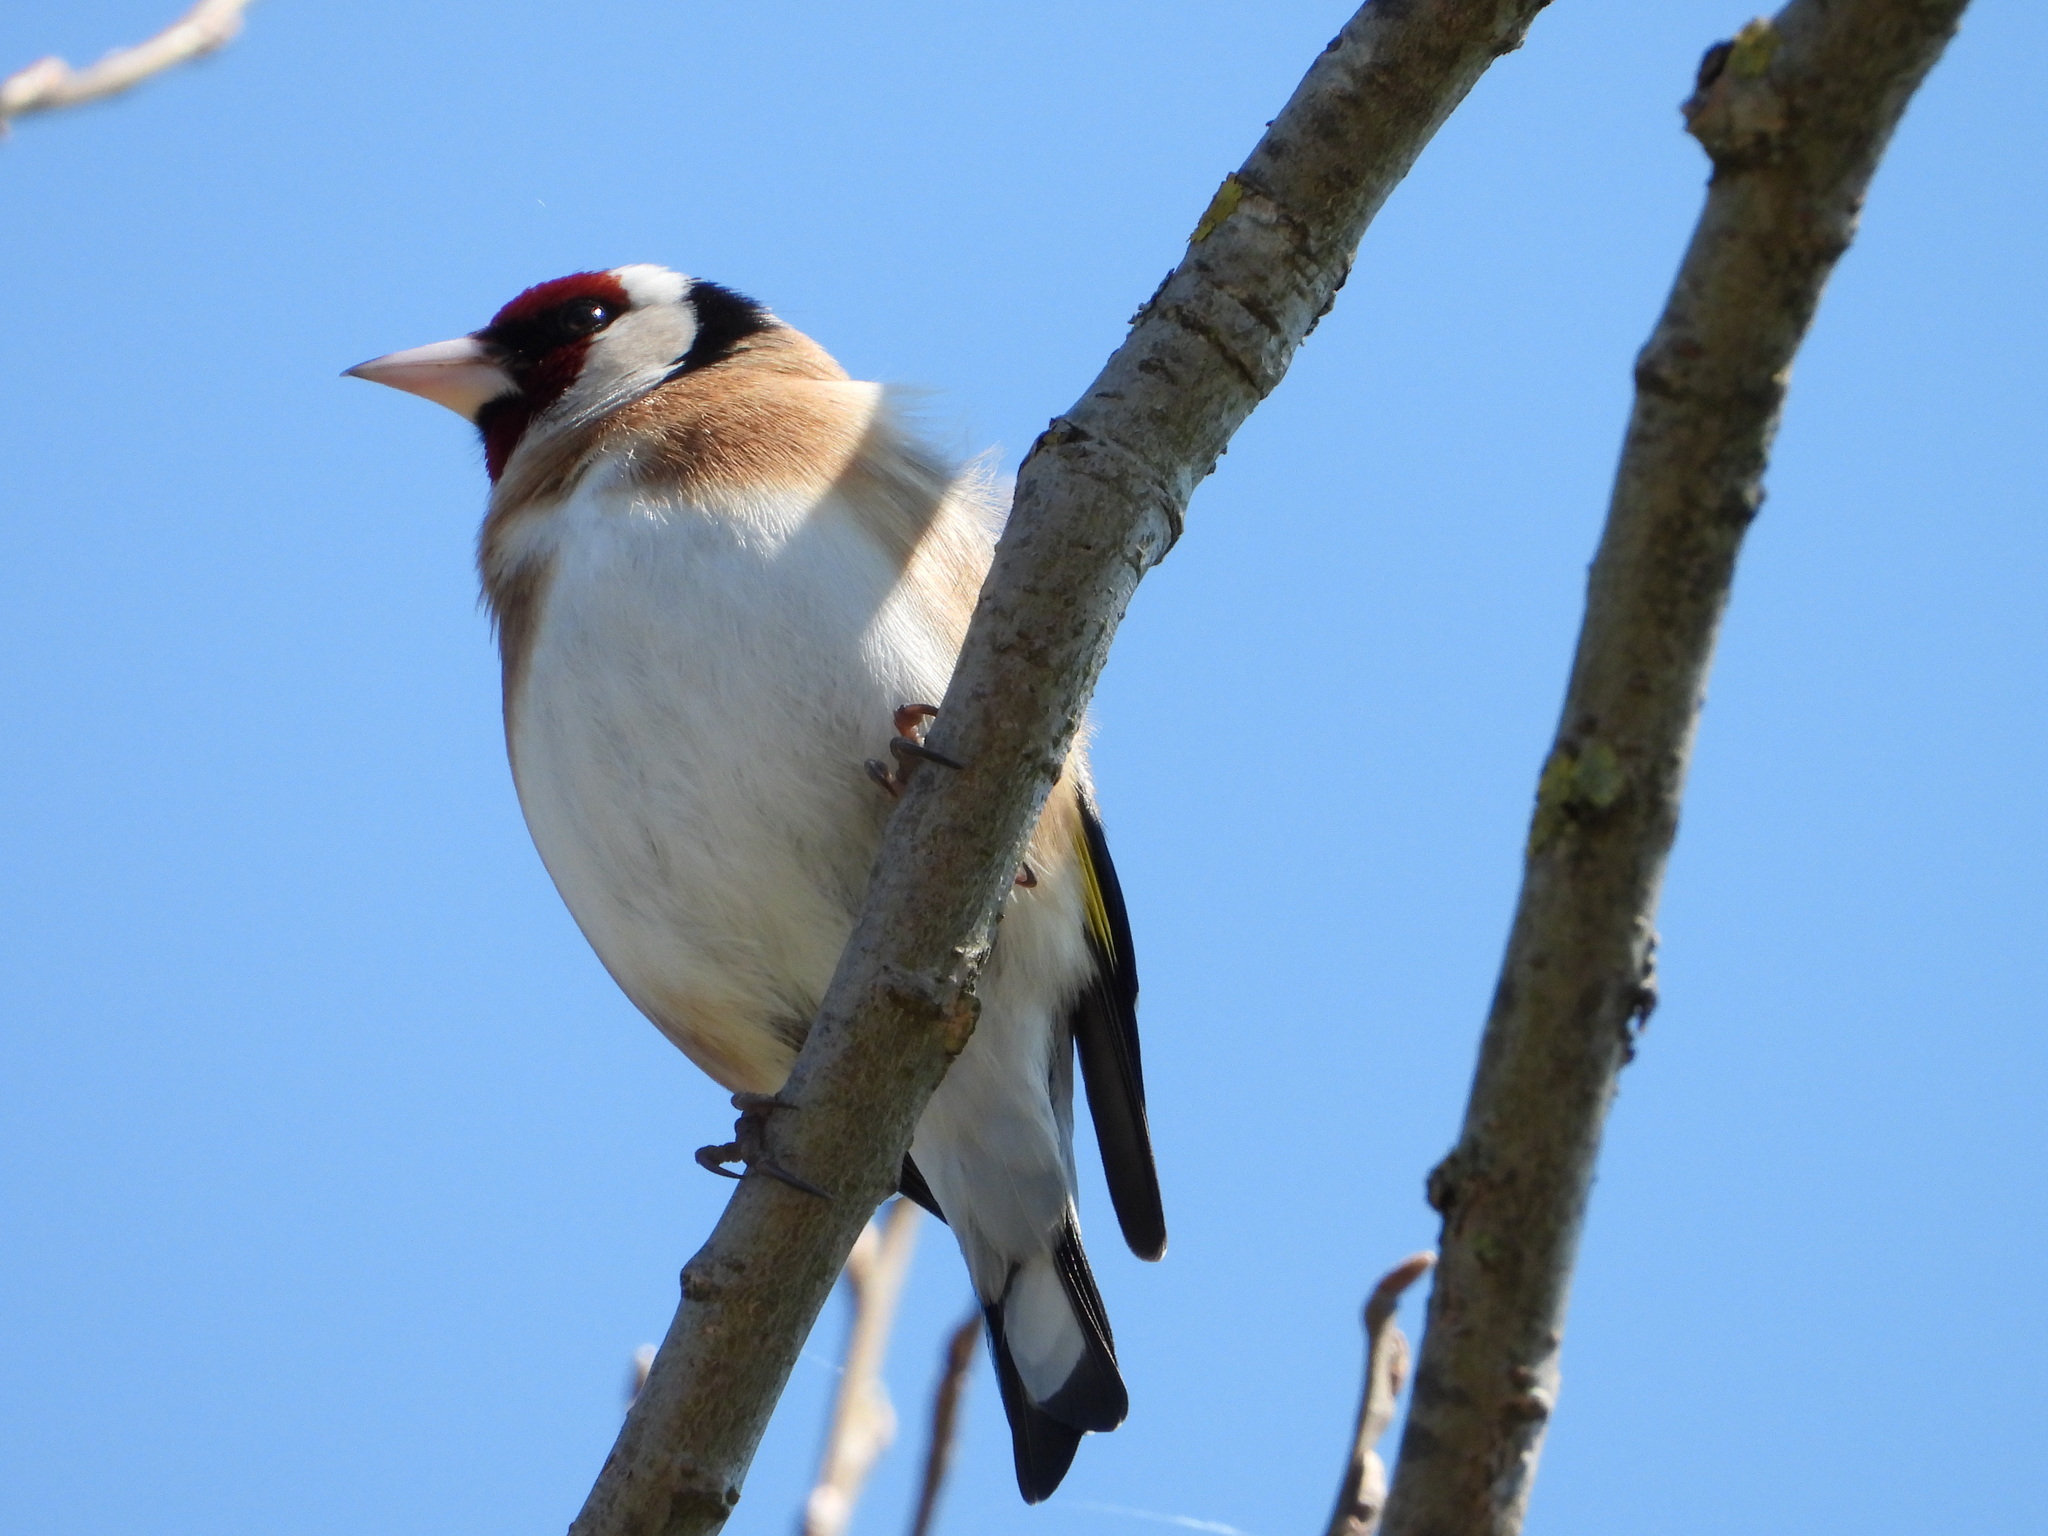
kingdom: Animalia
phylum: Chordata
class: Aves
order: Passeriformes
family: Fringillidae
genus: Carduelis
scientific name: Carduelis carduelis
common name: European goldfinch
